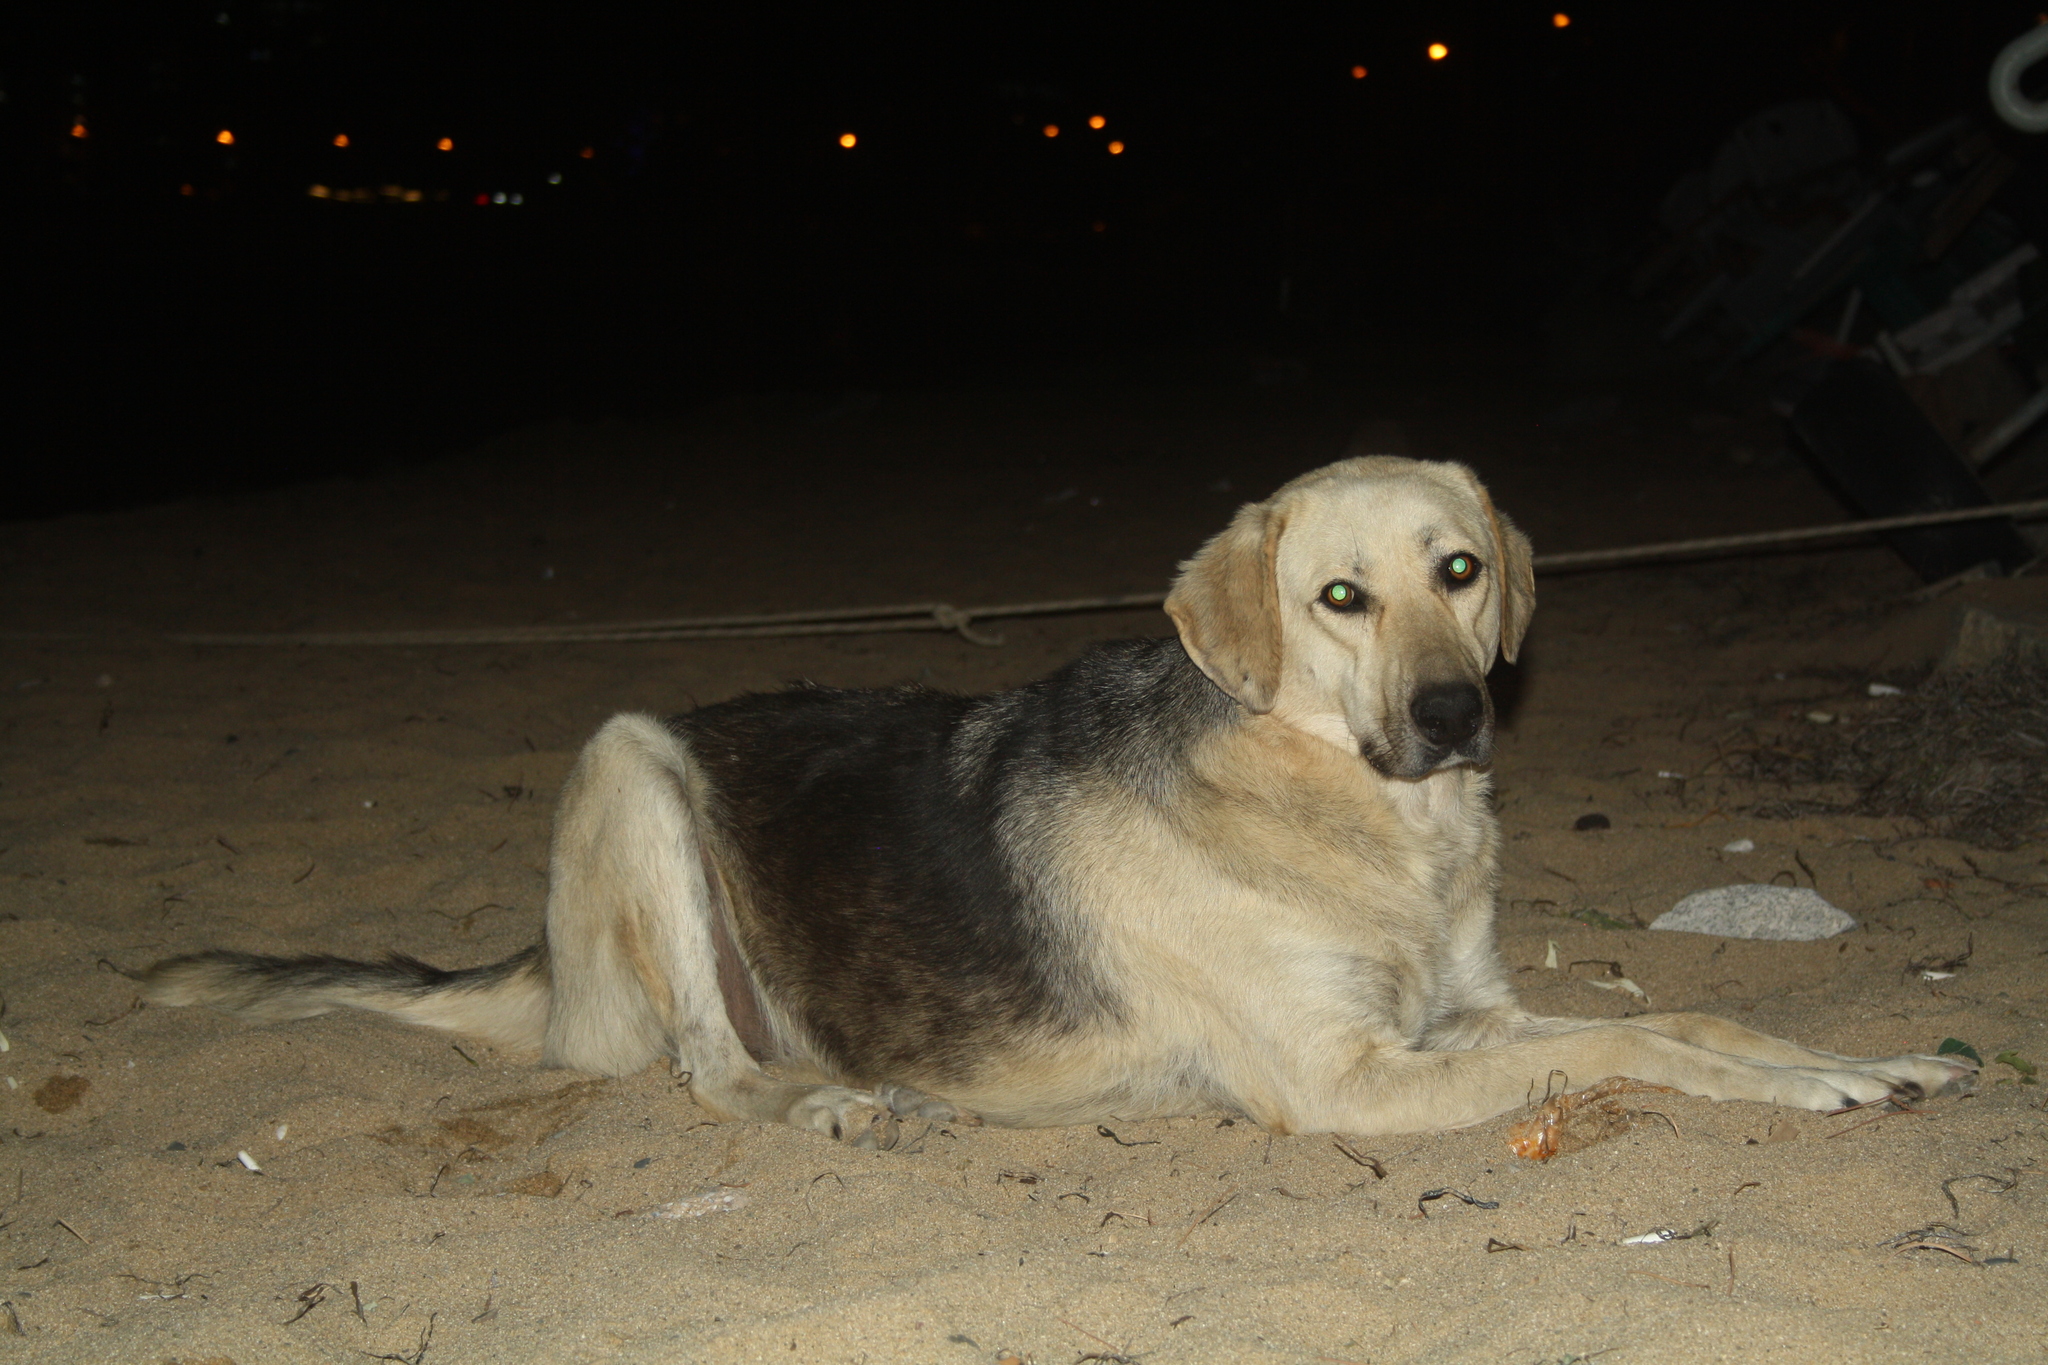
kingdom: Animalia
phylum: Chordata
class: Mammalia
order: Carnivora
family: Canidae
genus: Canis
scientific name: Canis lupus
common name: Gray wolf
